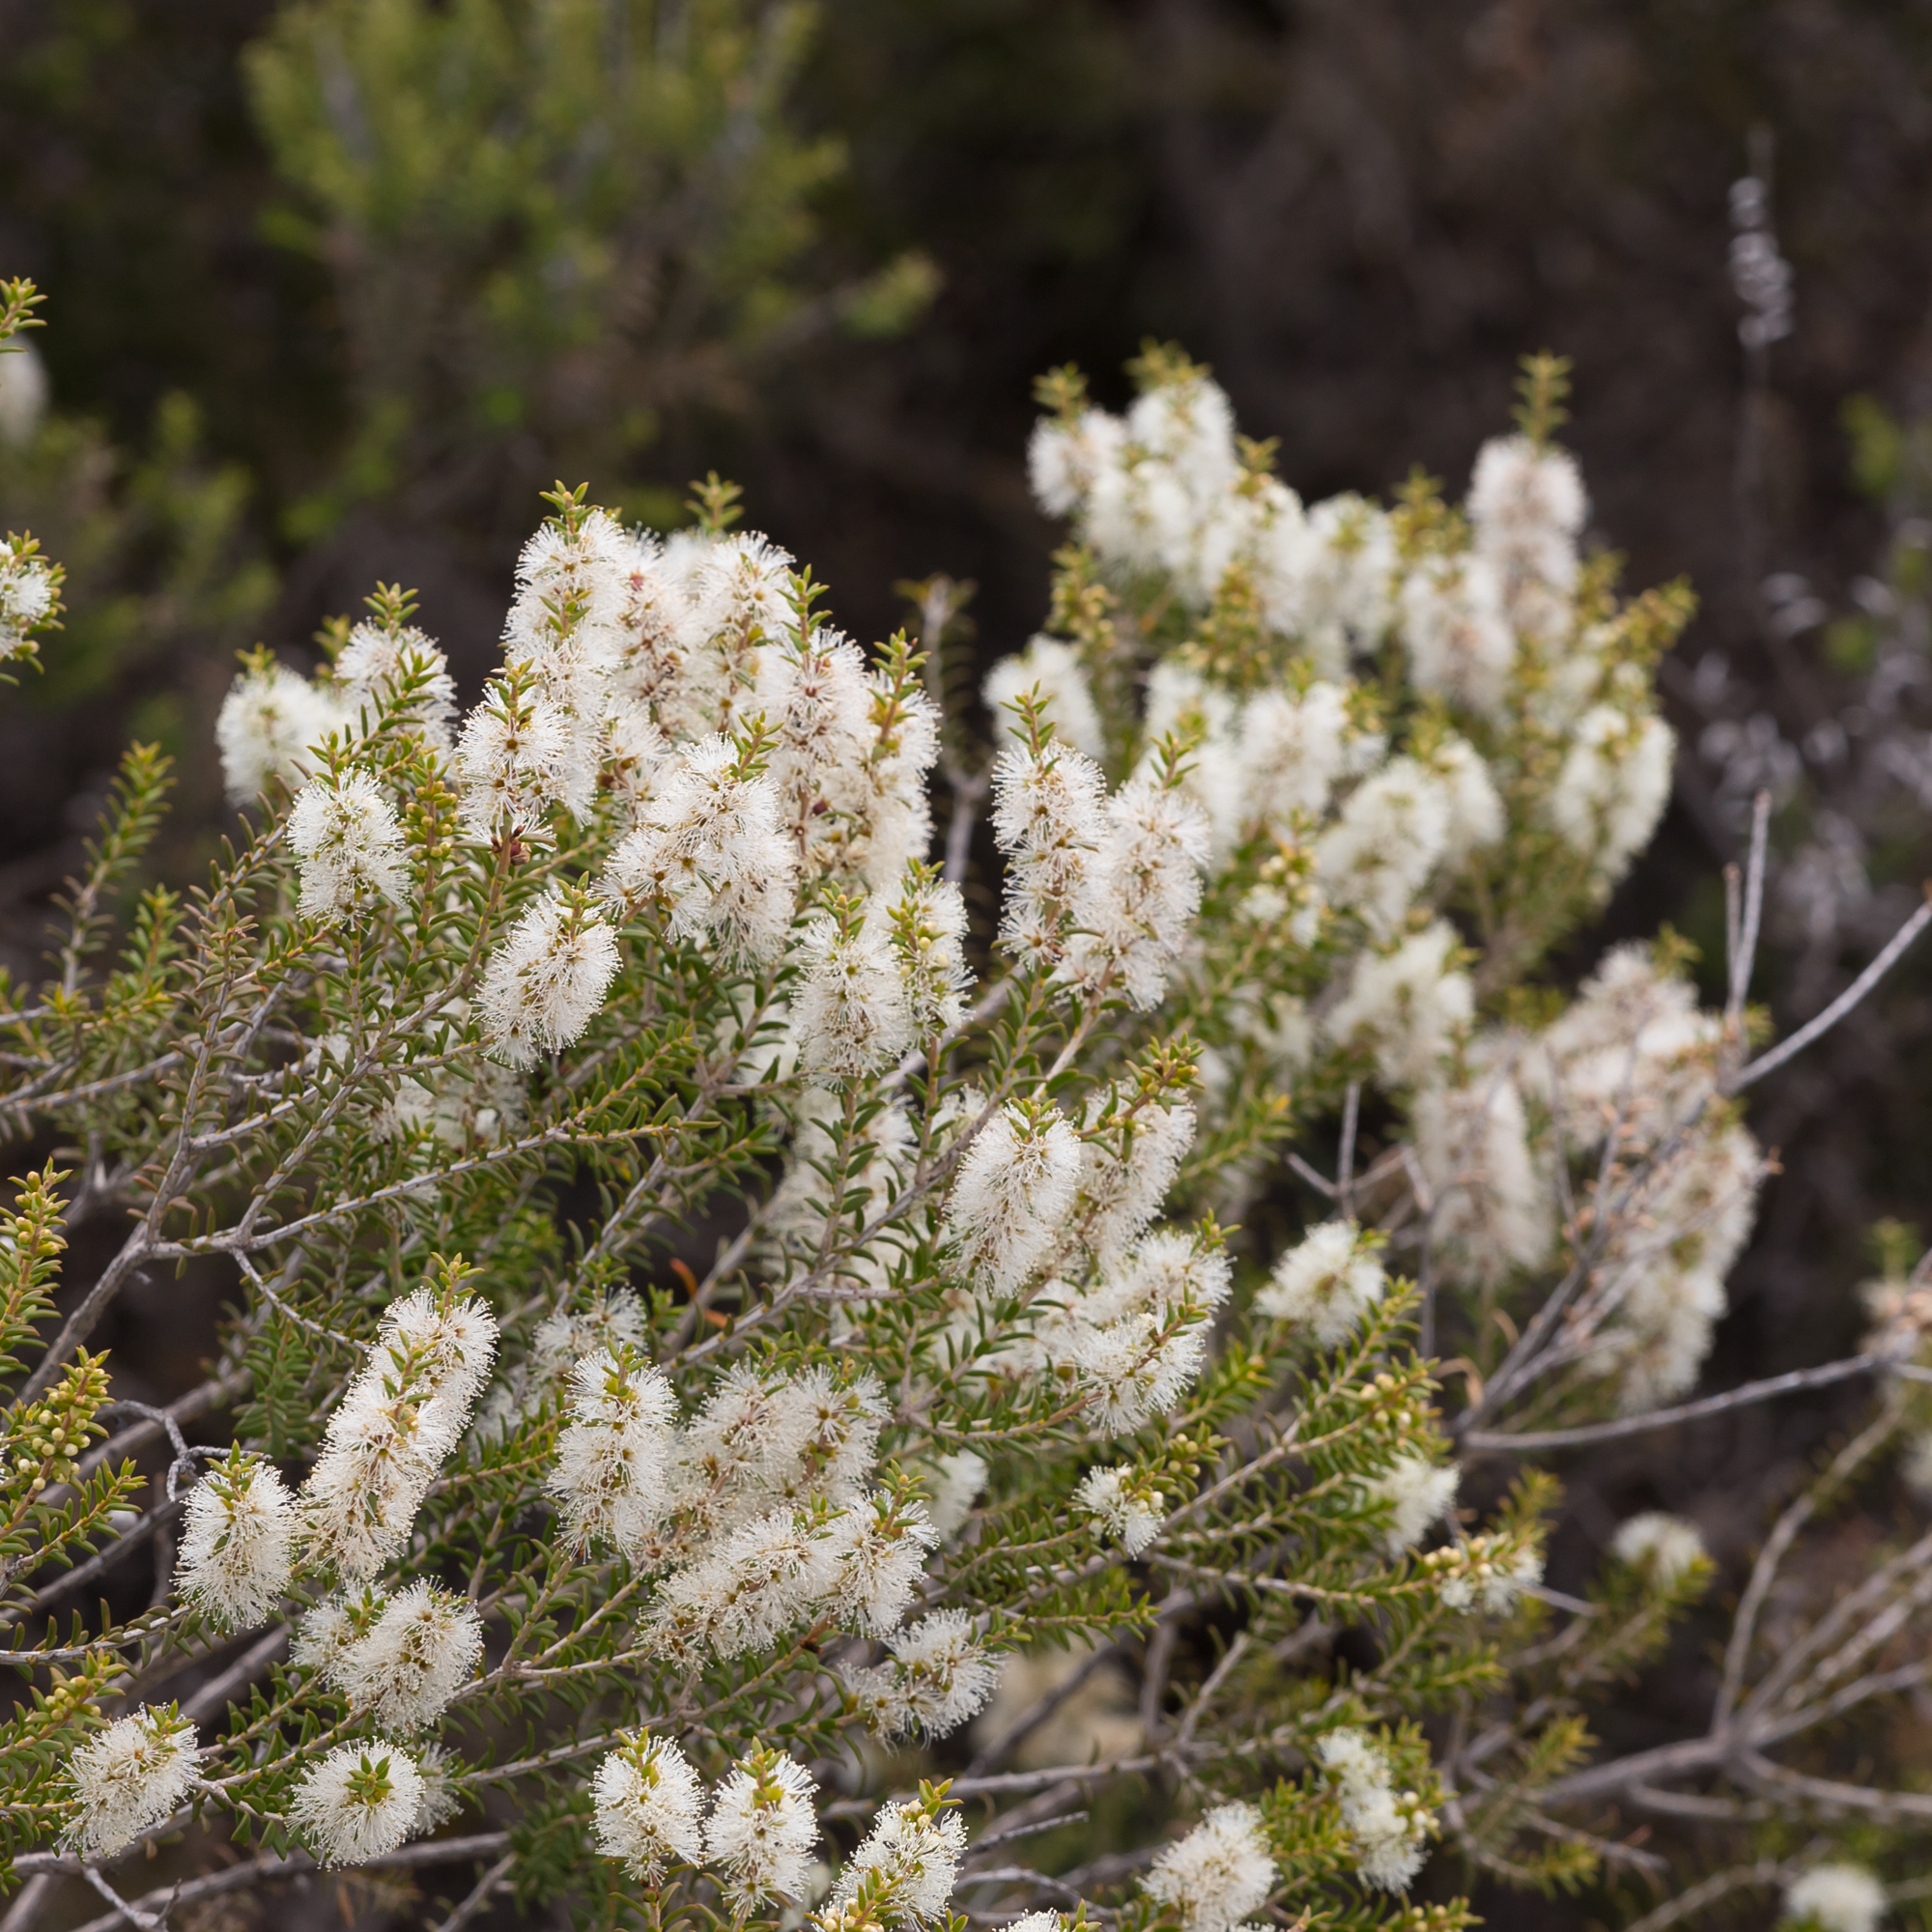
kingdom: Plantae
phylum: Tracheophyta
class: Magnoliopsida
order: Myrtales
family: Myrtaceae
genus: Melaleuca
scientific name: Melaleuca lanceolata
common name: Rottnest island teatree
